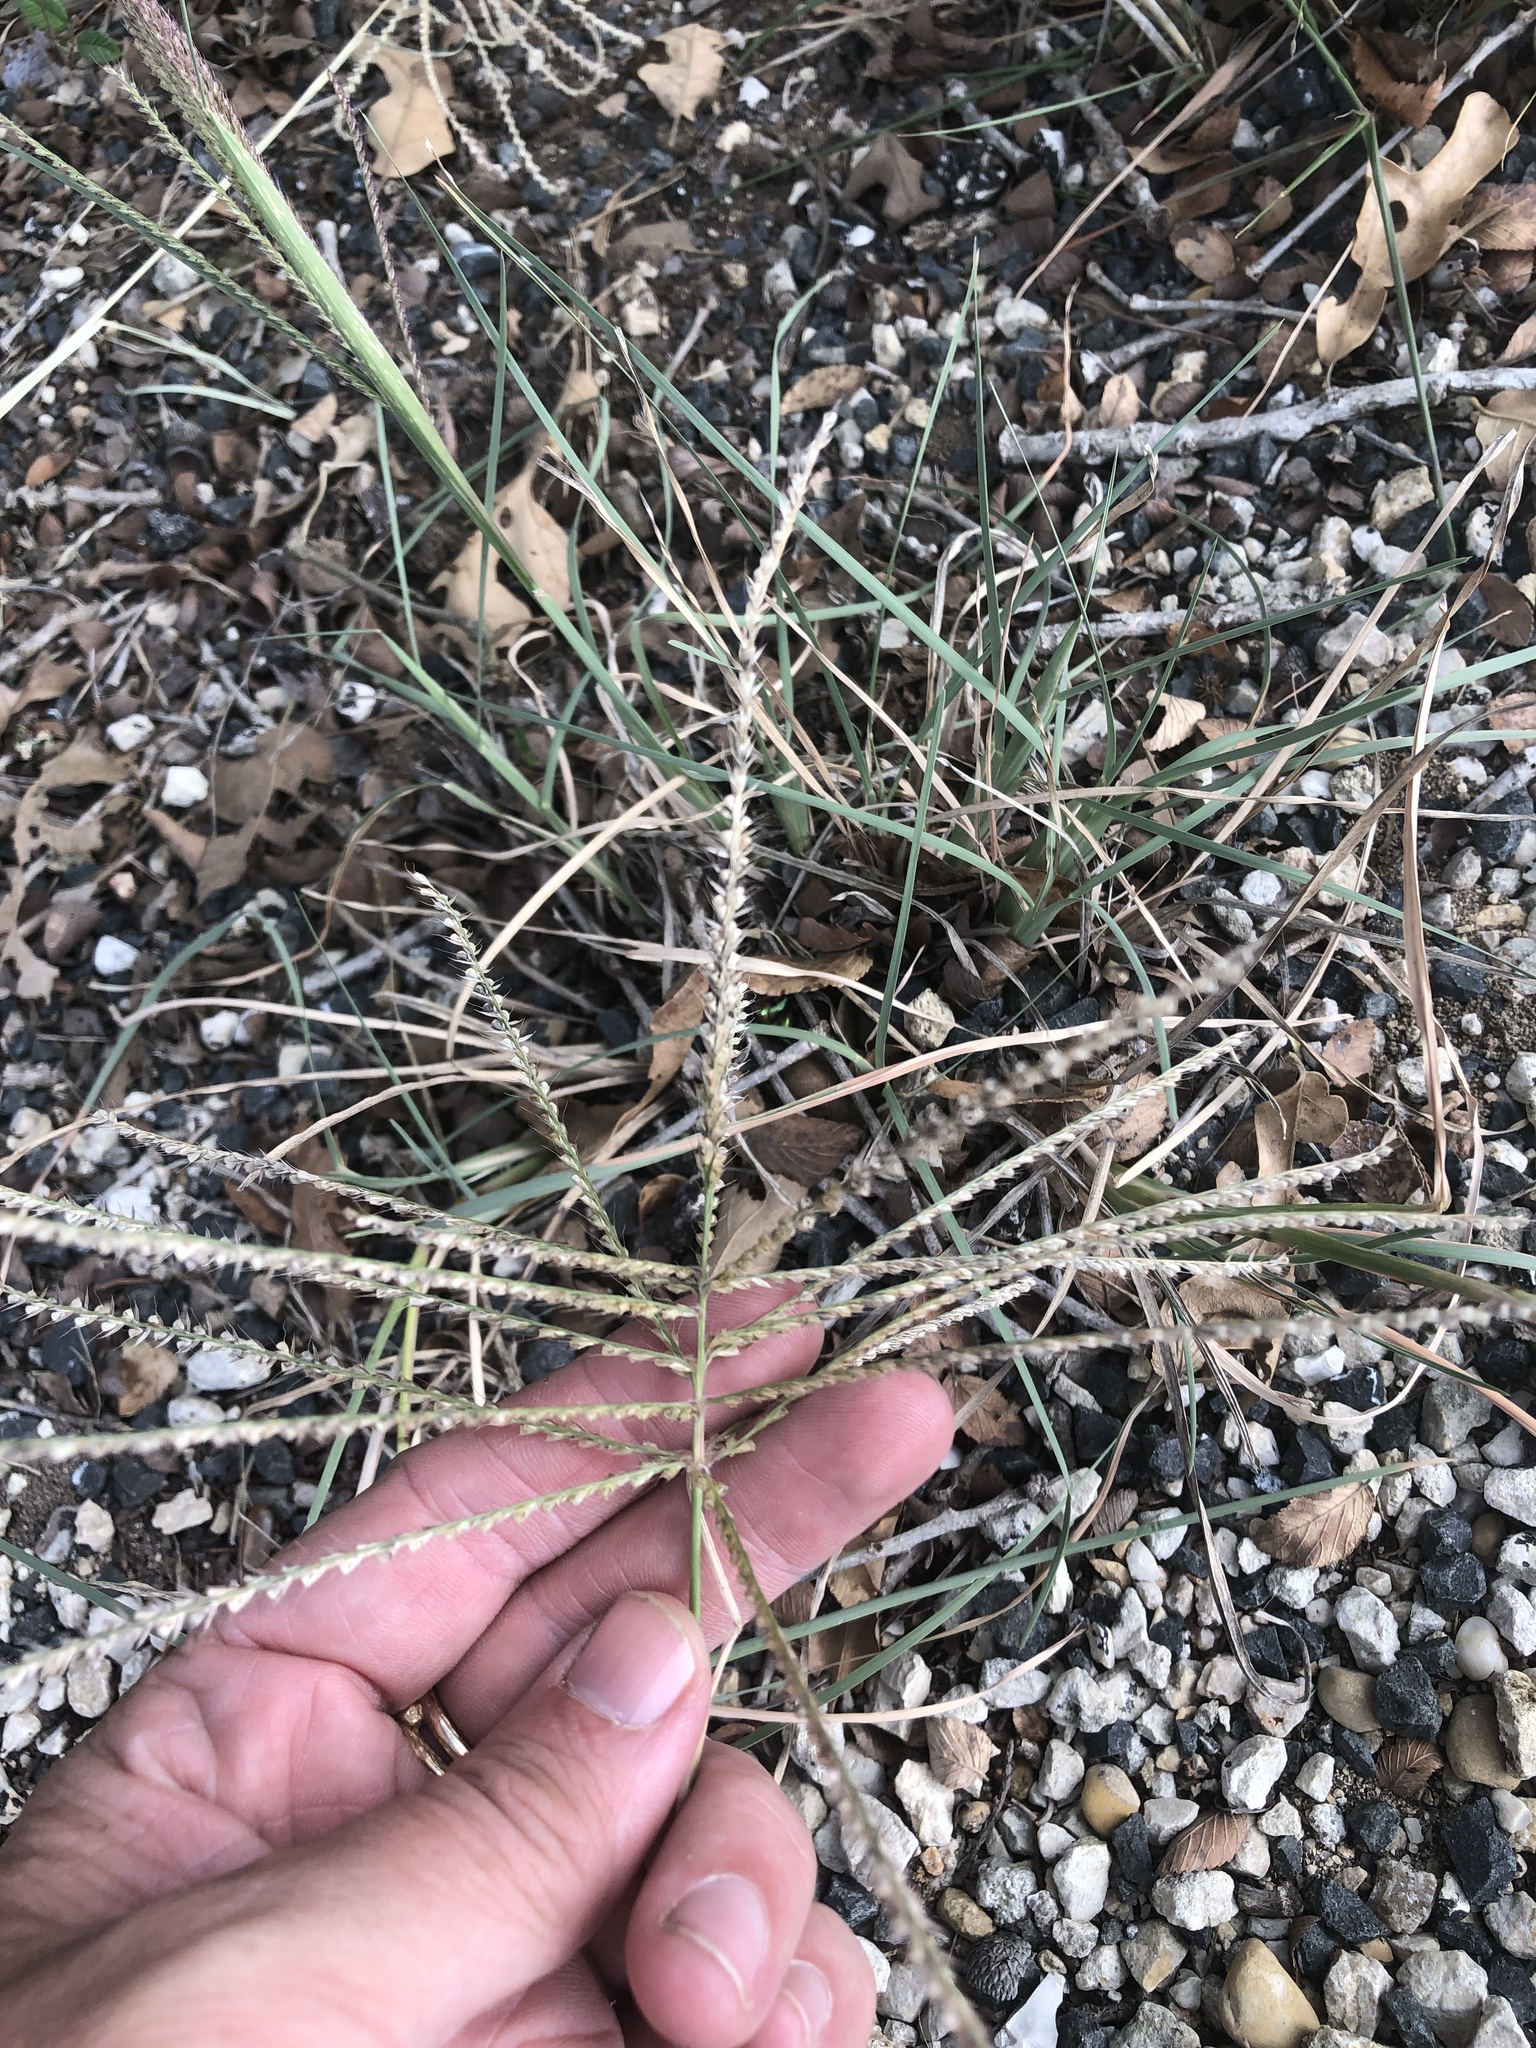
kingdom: Plantae
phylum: Tracheophyta
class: Liliopsida
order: Poales
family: Poaceae
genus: Chloris
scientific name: Chloris verticillata
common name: Tumble windmill grass
